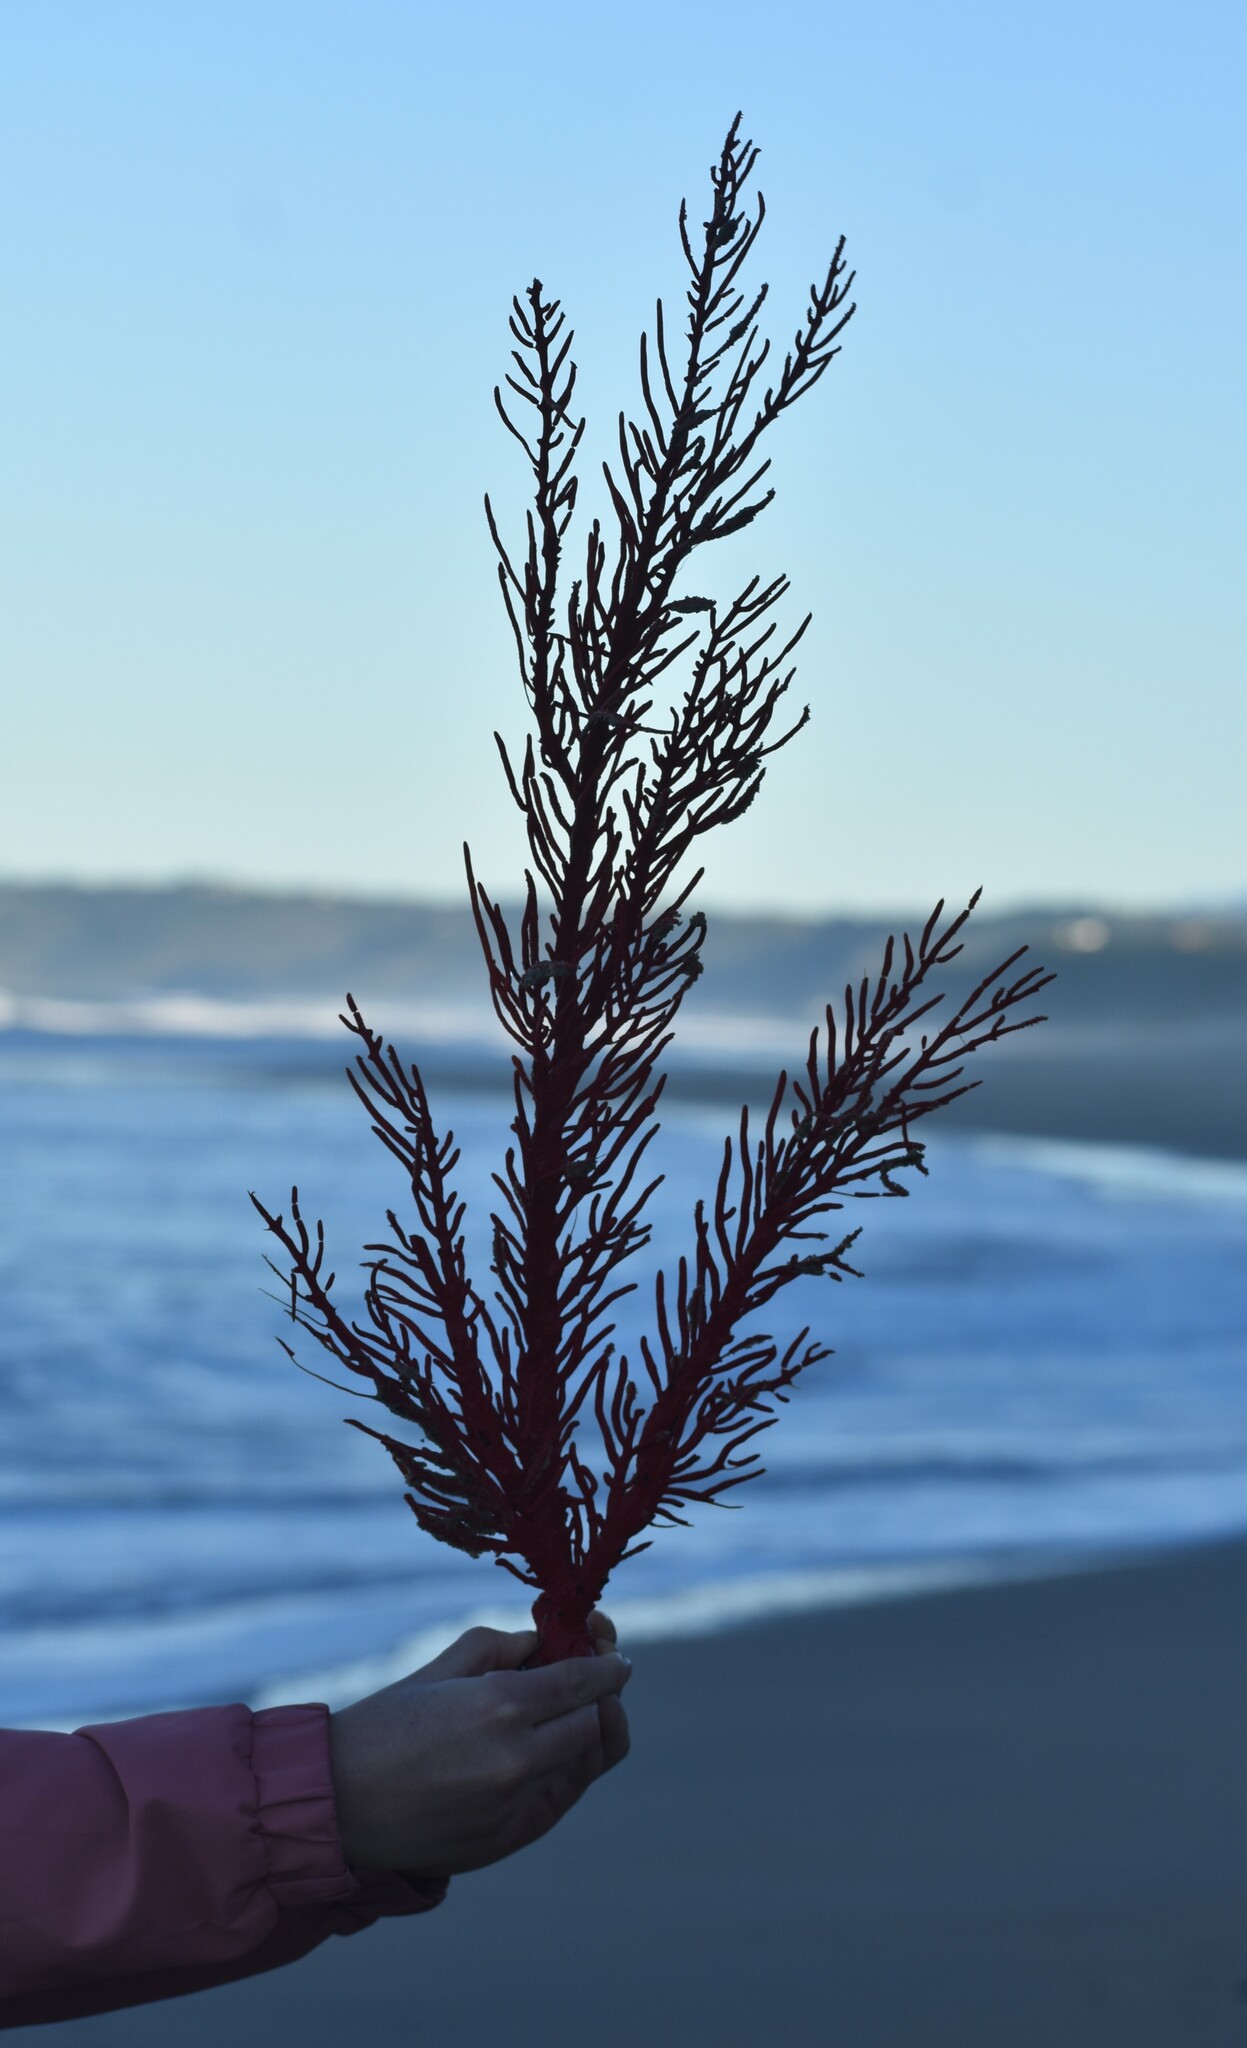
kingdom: Animalia
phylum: Cnidaria
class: Anthozoa
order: Malacalcyonacea
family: Gorgoniidae
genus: Leptogorgia
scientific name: Leptogorgia palma
